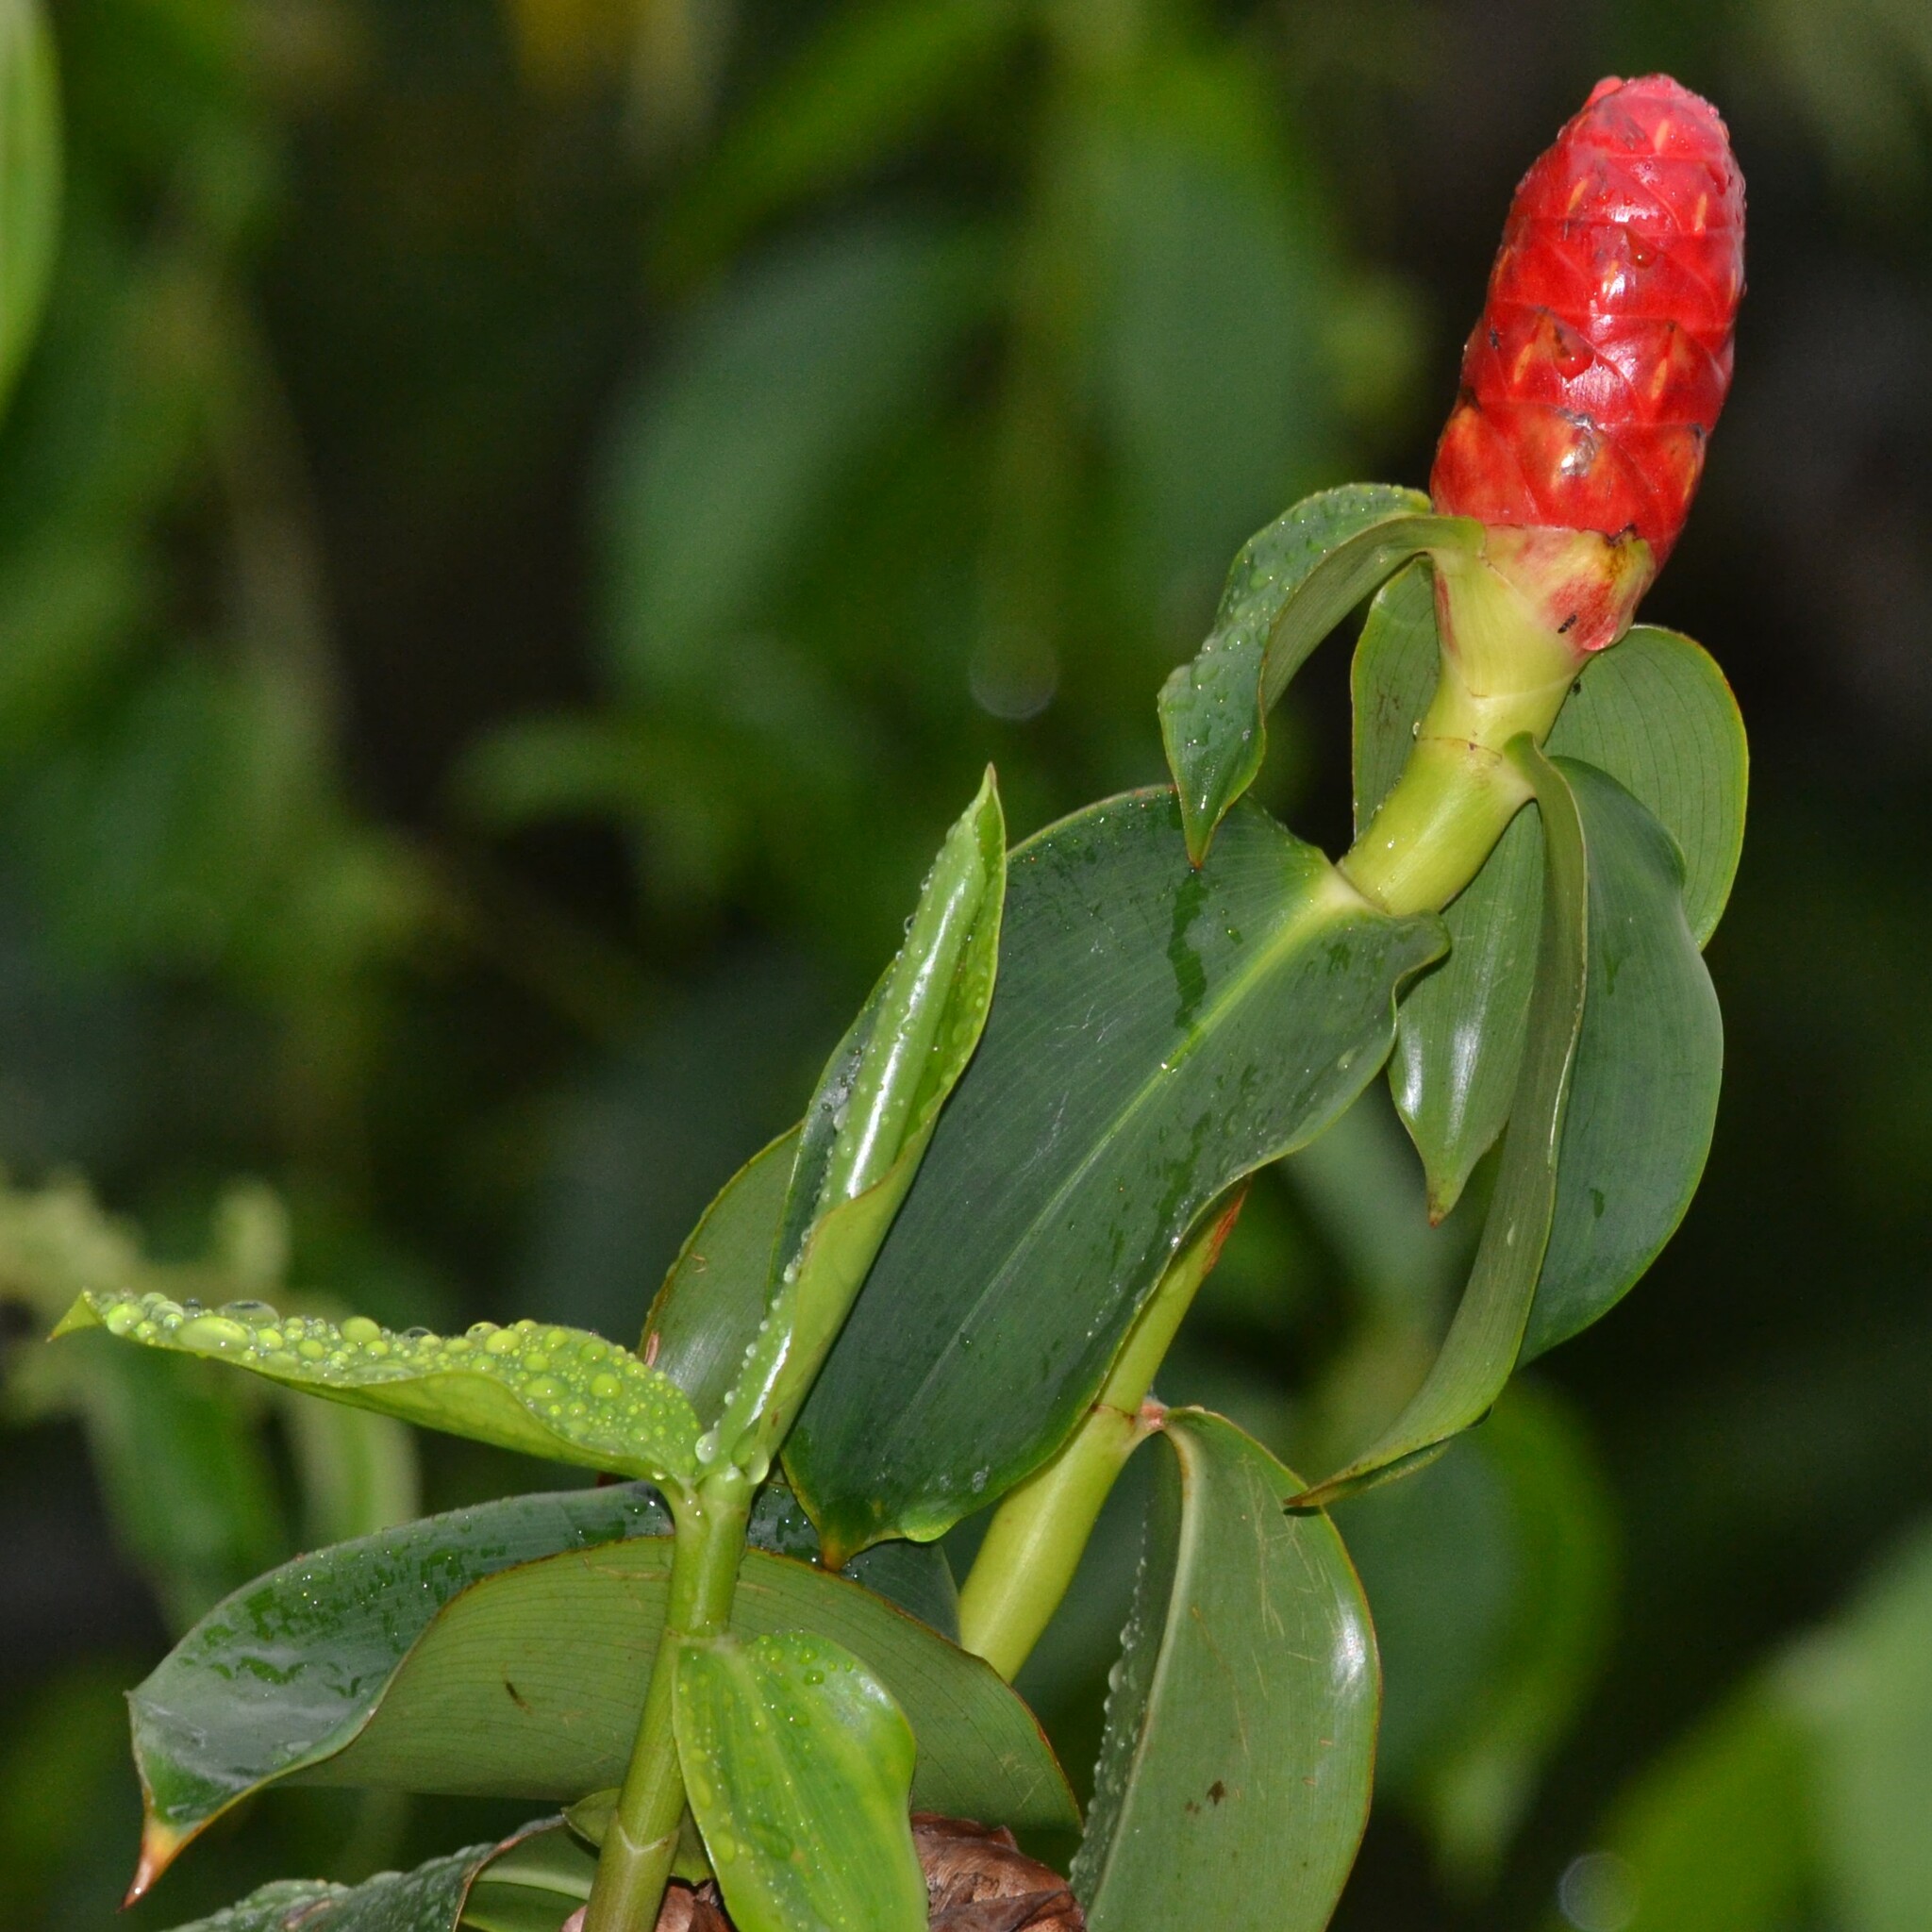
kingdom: Plantae
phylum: Tracheophyta
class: Liliopsida
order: Zingiberales
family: Costaceae
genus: Costus
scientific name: Costus woodsonii
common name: Scarlet spiral-ginger
